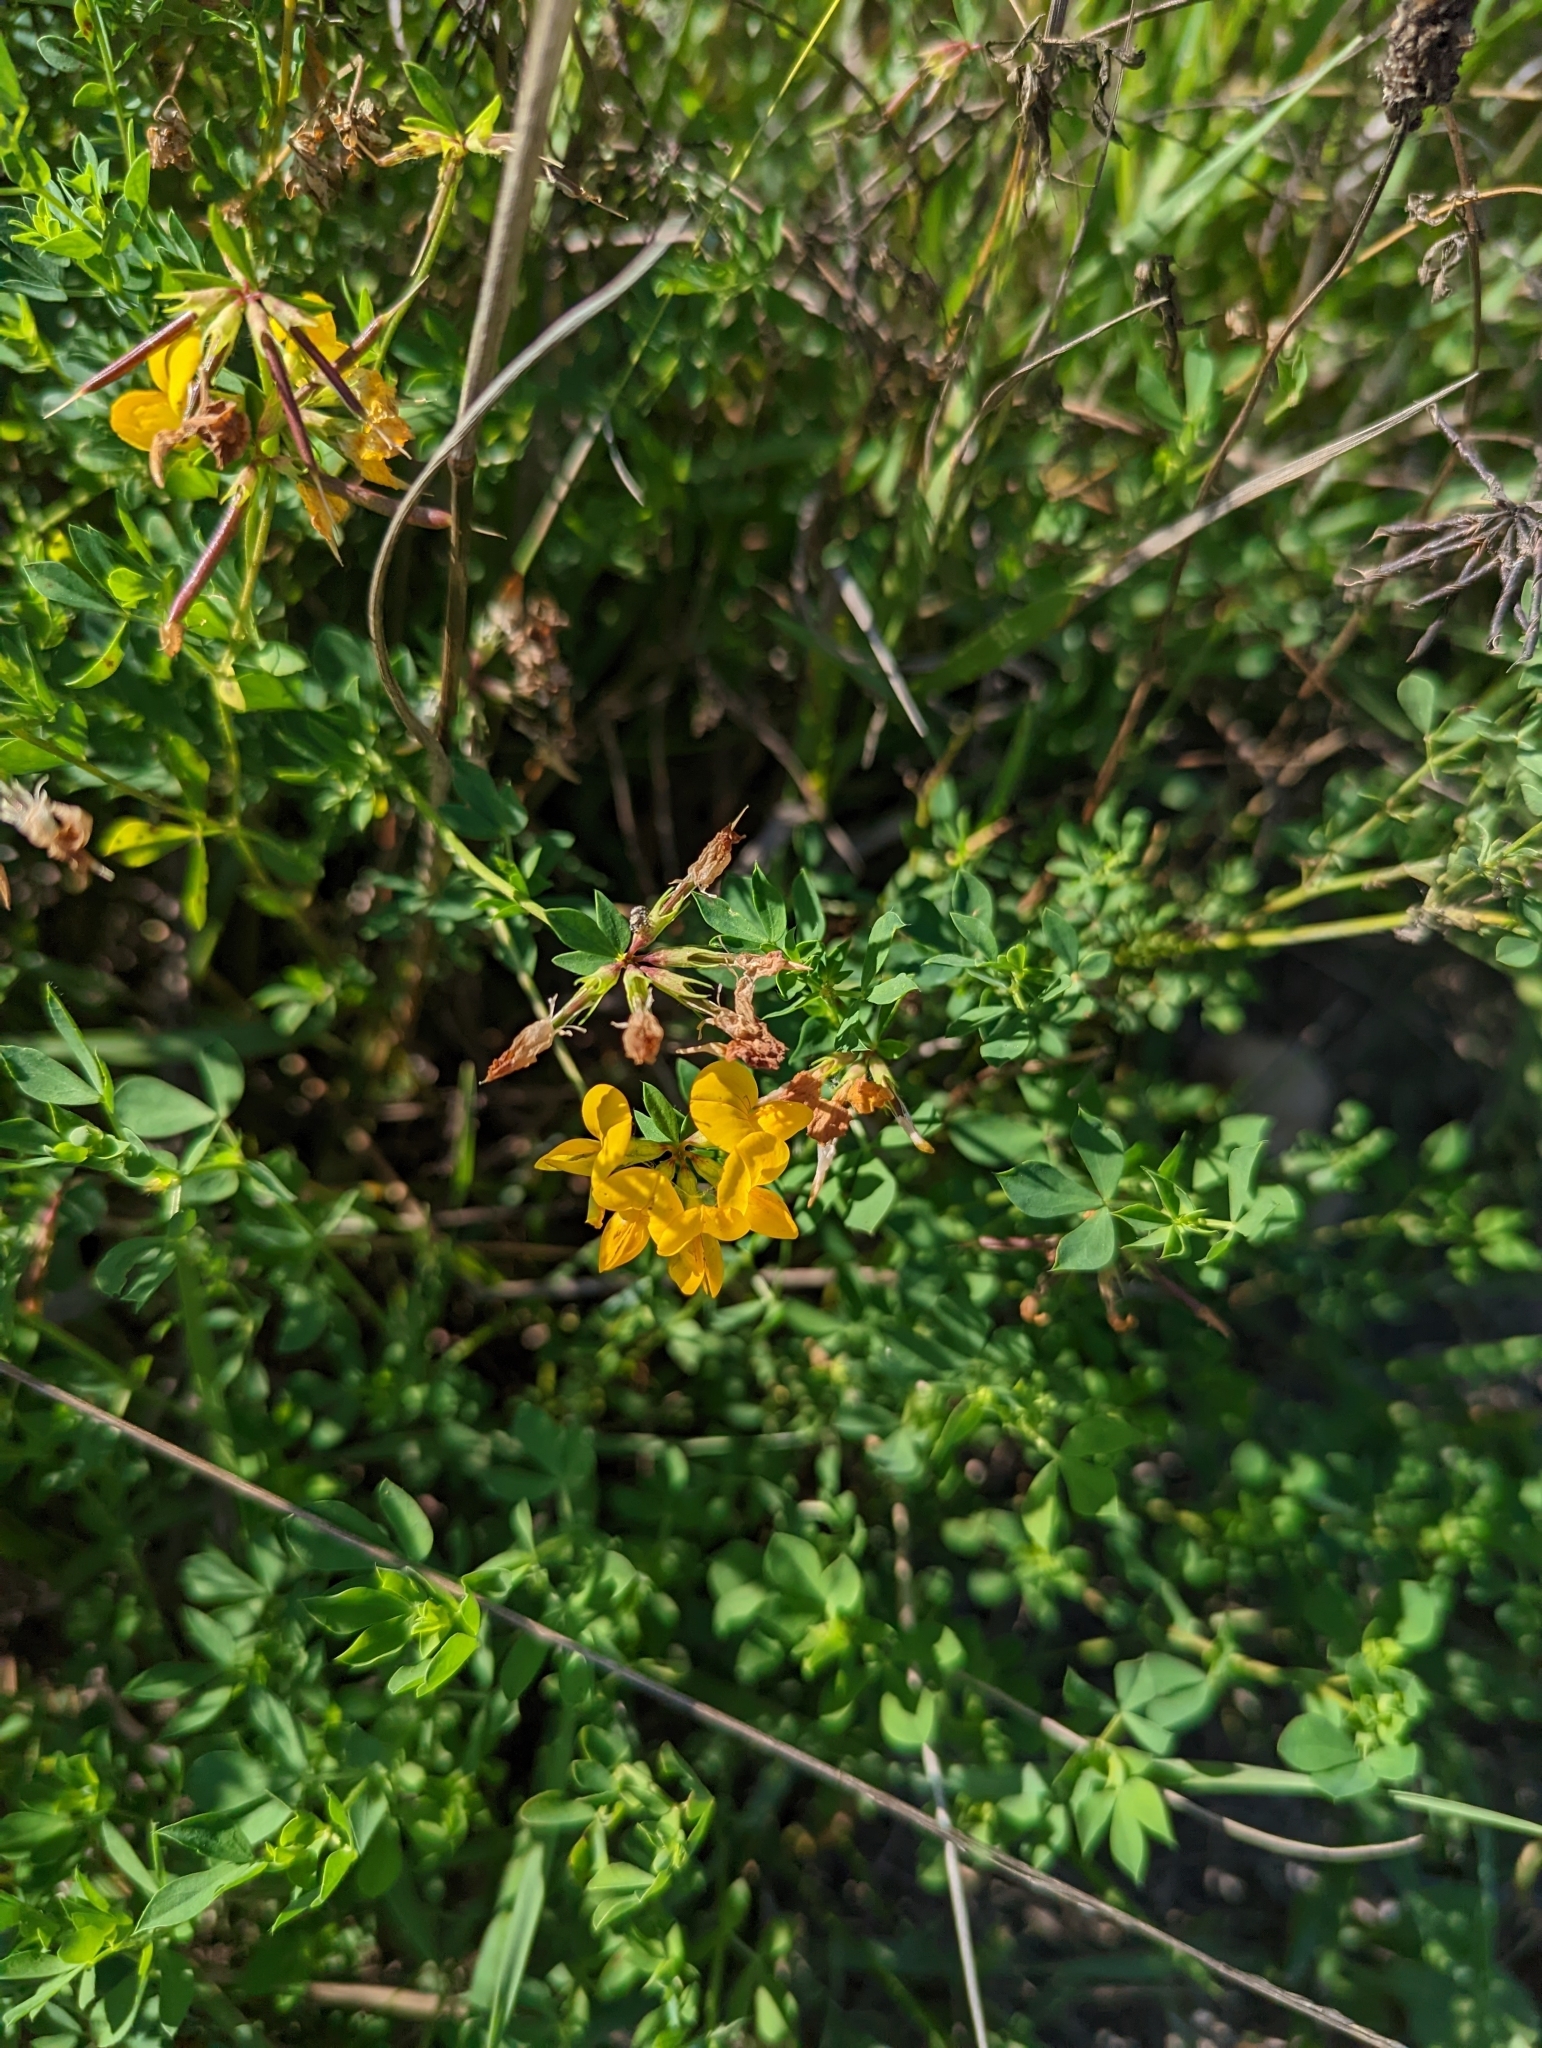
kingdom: Plantae
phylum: Tracheophyta
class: Magnoliopsida
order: Fabales
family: Fabaceae
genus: Lotus
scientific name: Lotus corniculatus
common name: Common bird's-foot-trefoil
